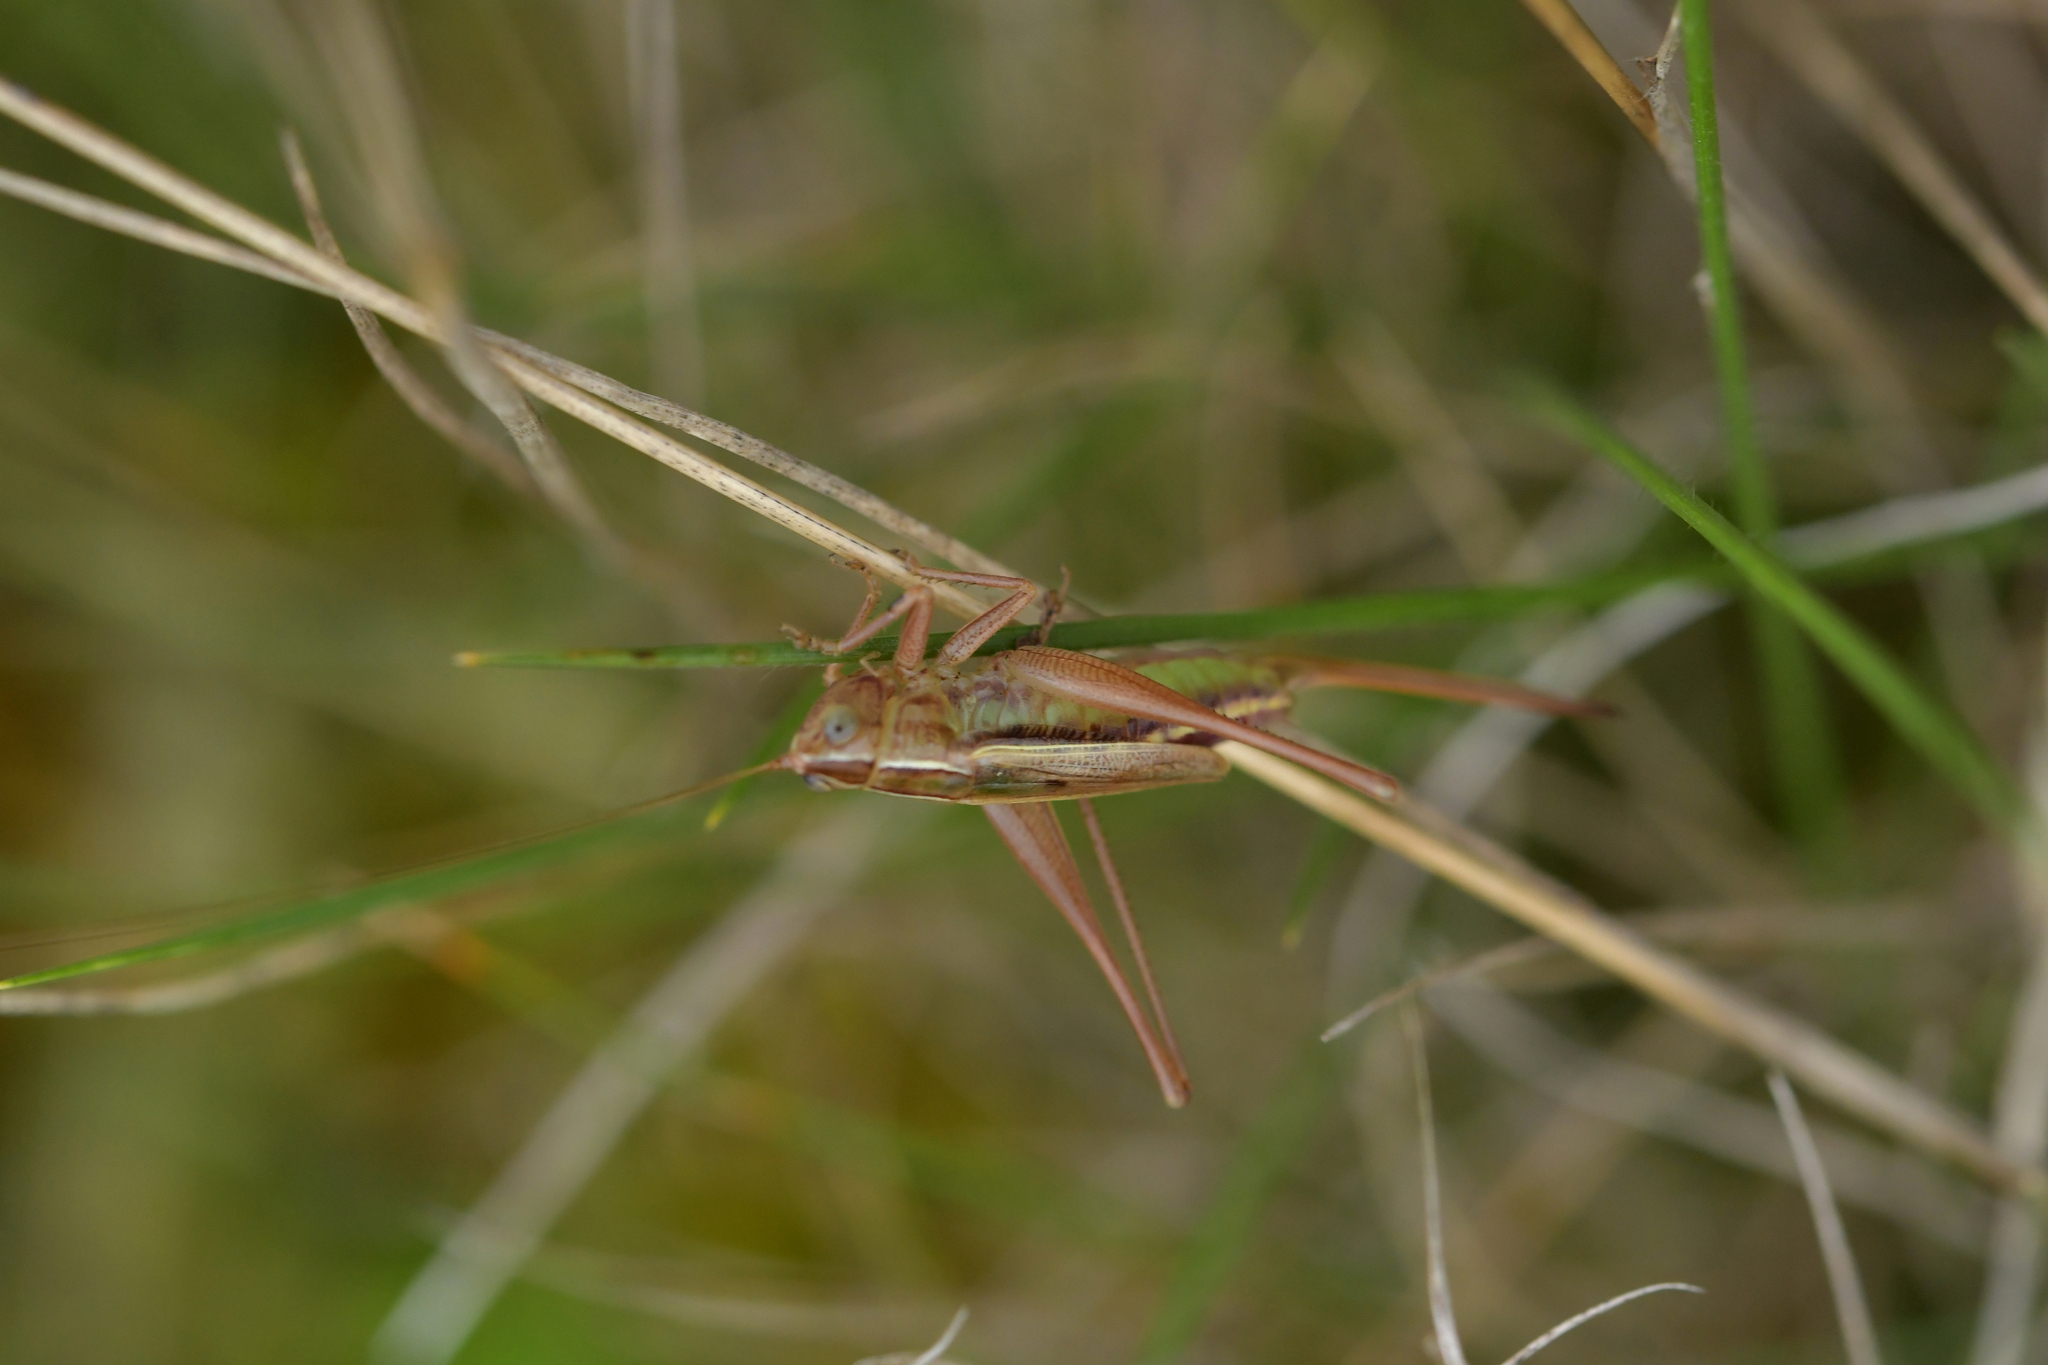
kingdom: Animalia
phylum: Arthropoda
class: Insecta
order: Orthoptera
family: Tettigoniidae
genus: Conocephalus
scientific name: Conocephalus albescens
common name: Whitish meadow katydid
